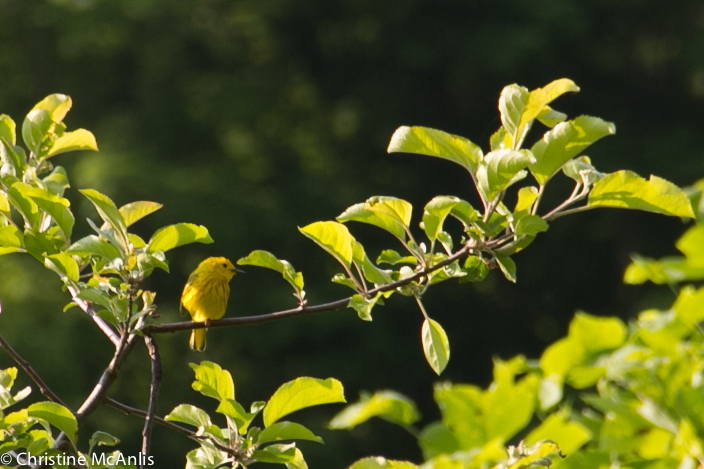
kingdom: Animalia
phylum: Chordata
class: Aves
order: Passeriformes
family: Parulidae
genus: Setophaga
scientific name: Setophaga petechia
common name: Yellow warbler
